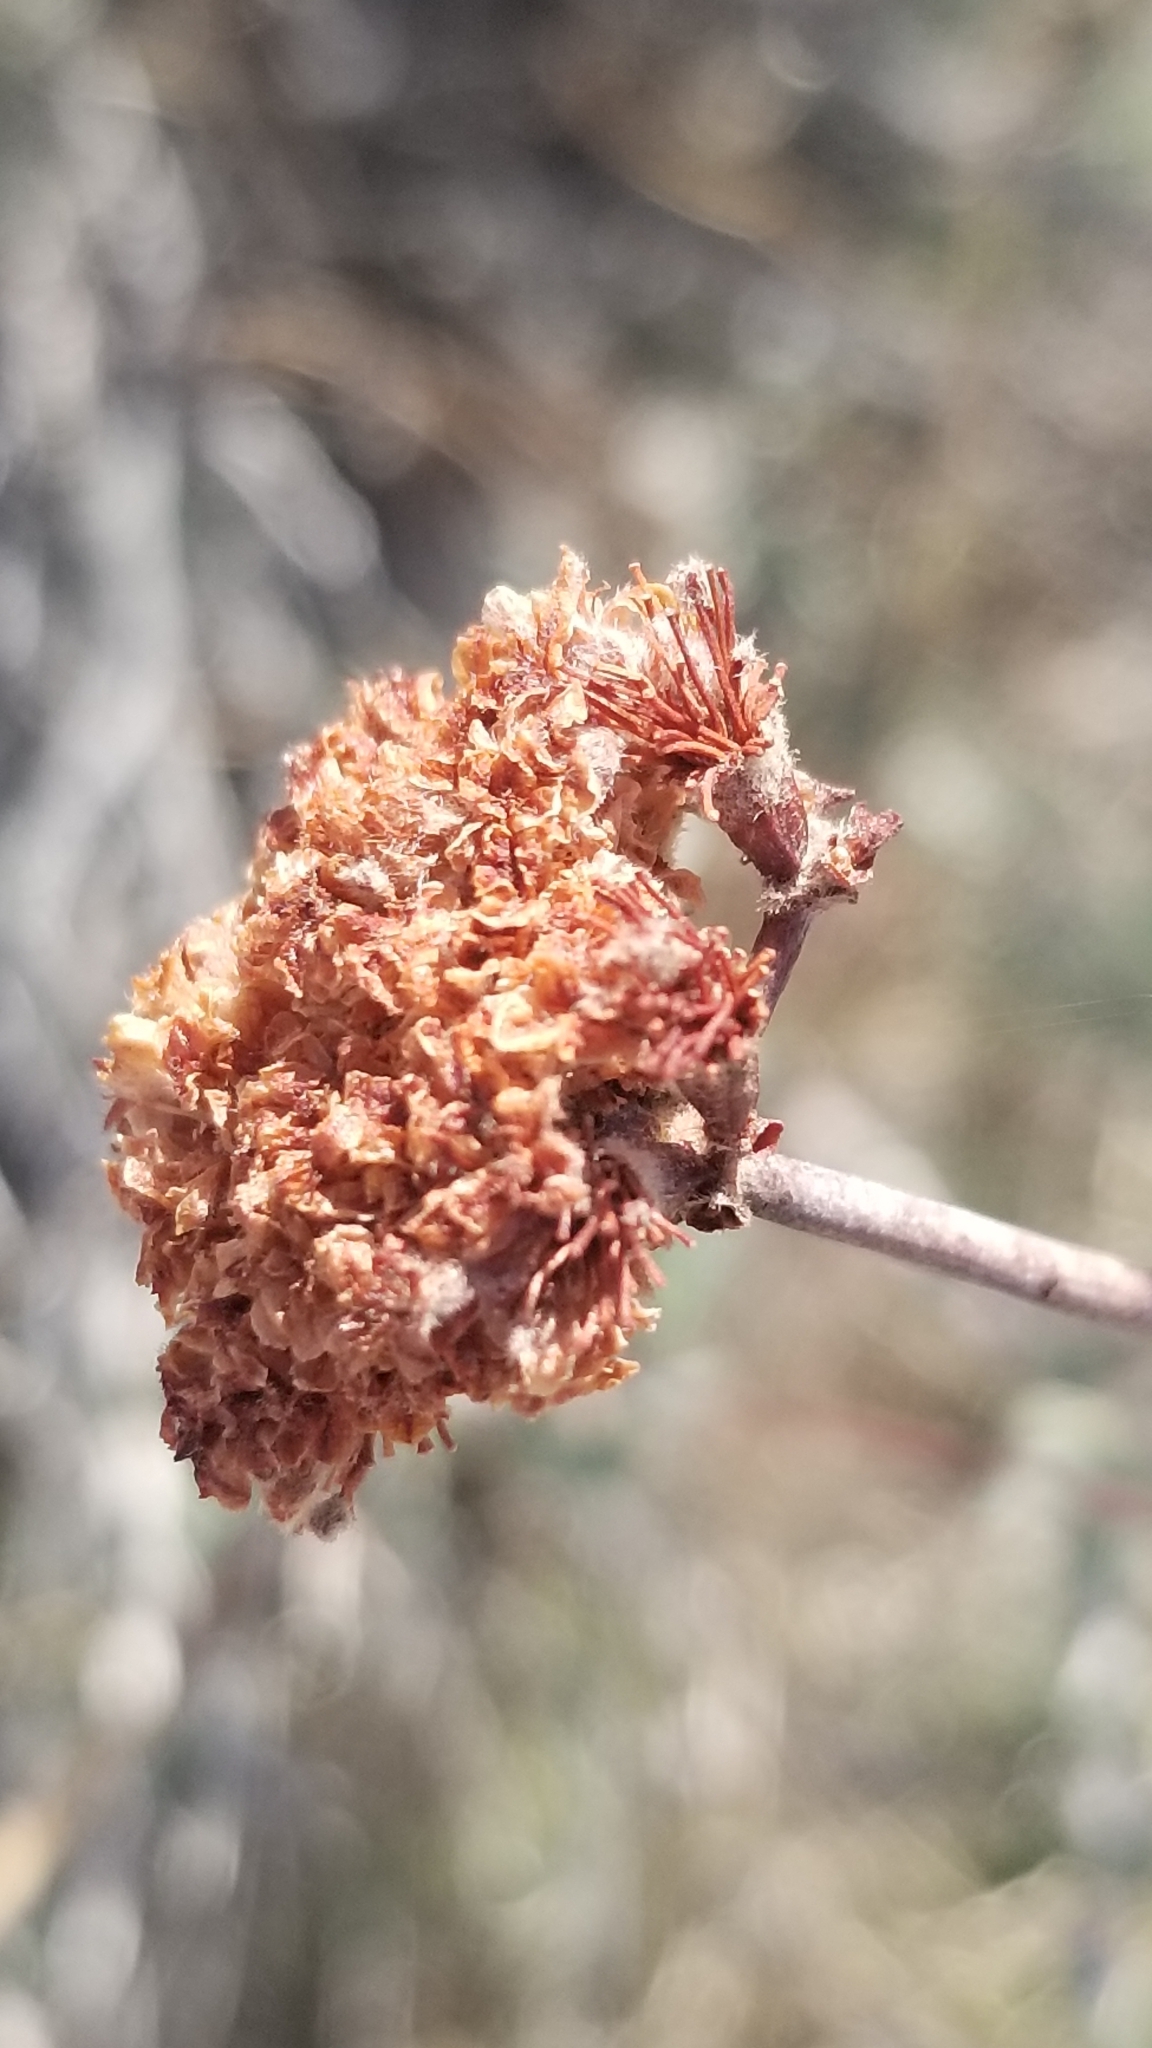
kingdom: Plantae
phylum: Tracheophyta
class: Magnoliopsida
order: Caryophyllales
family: Polygonaceae
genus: Eriogonum
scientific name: Eriogonum fasciculatum
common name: California wild buckwheat
